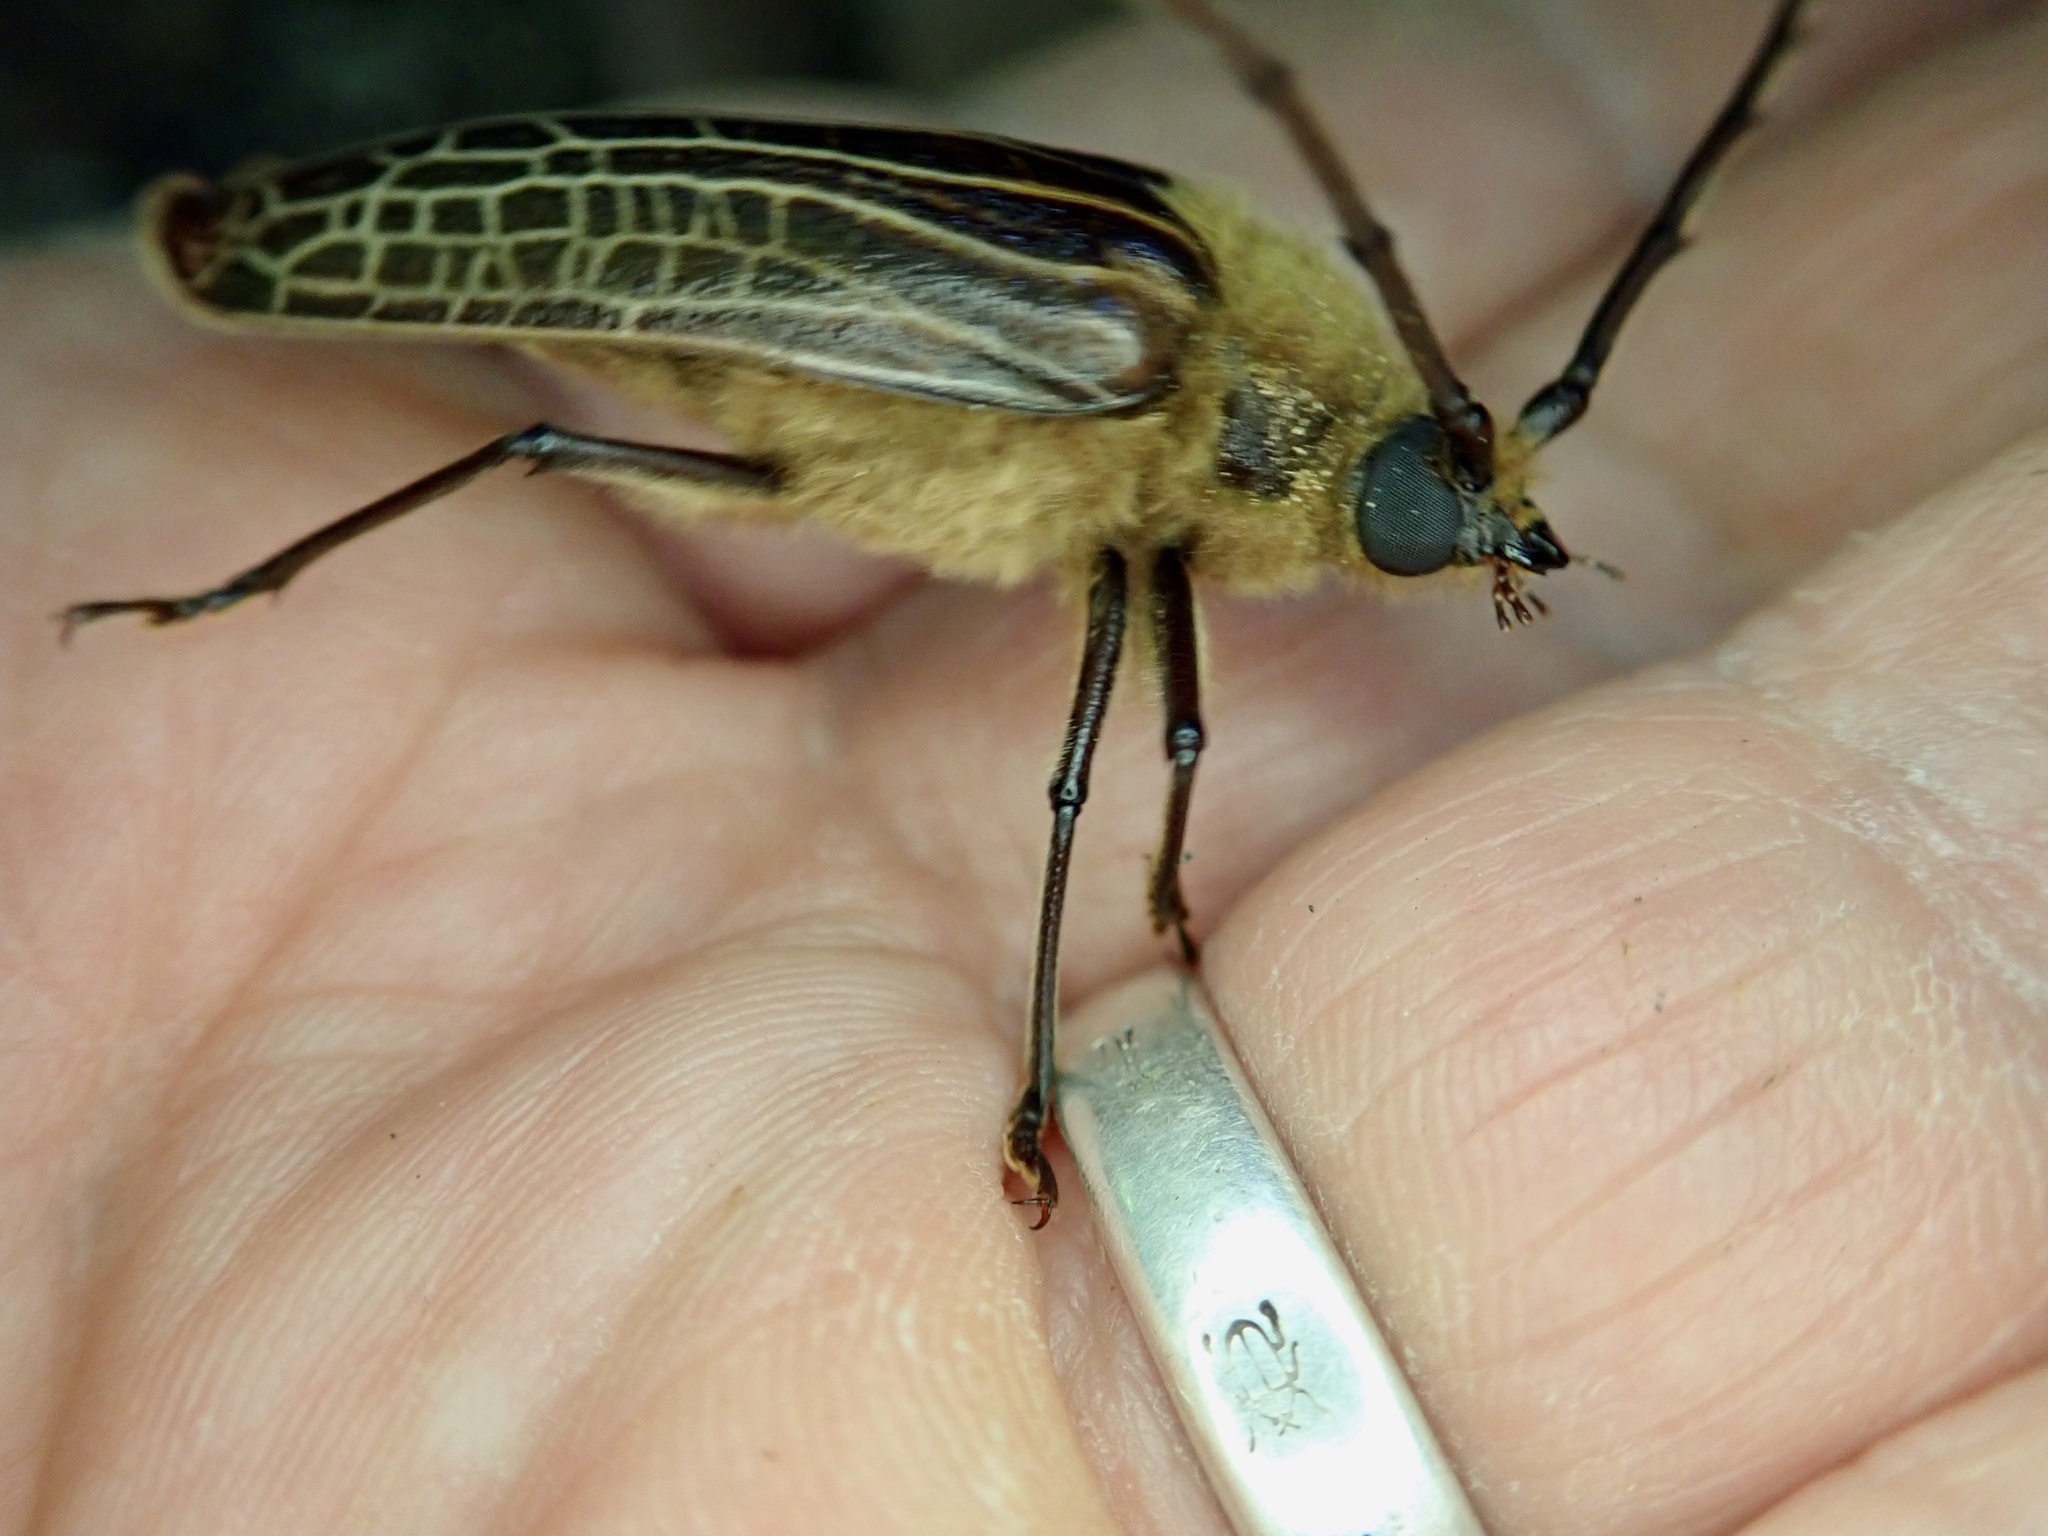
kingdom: Animalia
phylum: Arthropoda
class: Insecta
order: Coleoptera
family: Cerambycidae
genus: Prionoplus
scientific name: Prionoplus reticularis
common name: Huhu beetle
